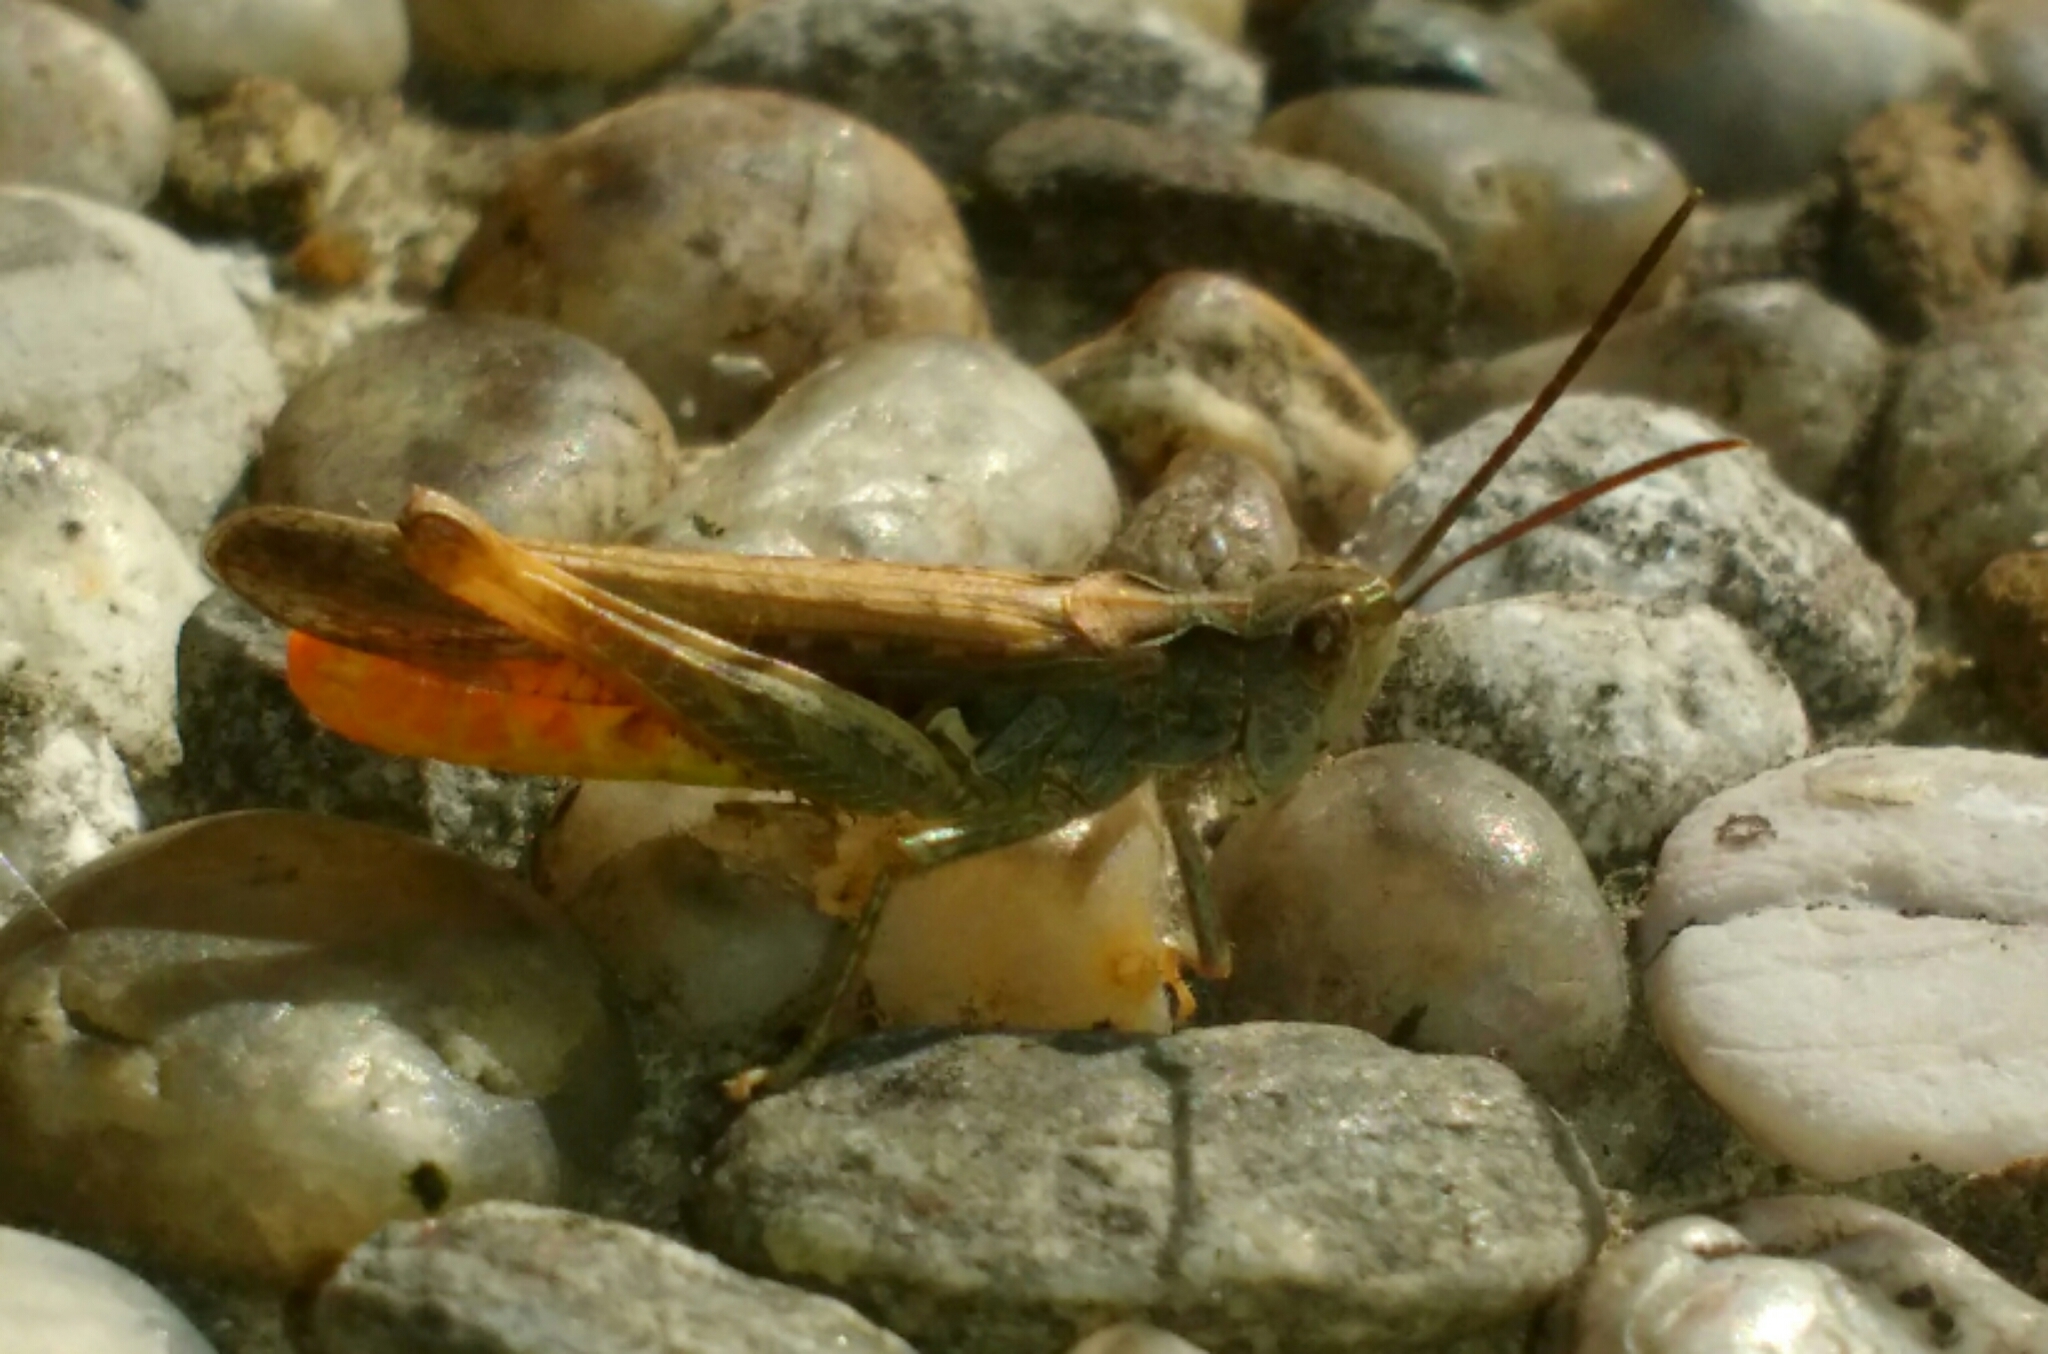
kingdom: Animalia
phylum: Arthropoda
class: Insecta
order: Orthoptera
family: Acrididae
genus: Chorthippus
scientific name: Chorthippus brunneus
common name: Field grasshopper
